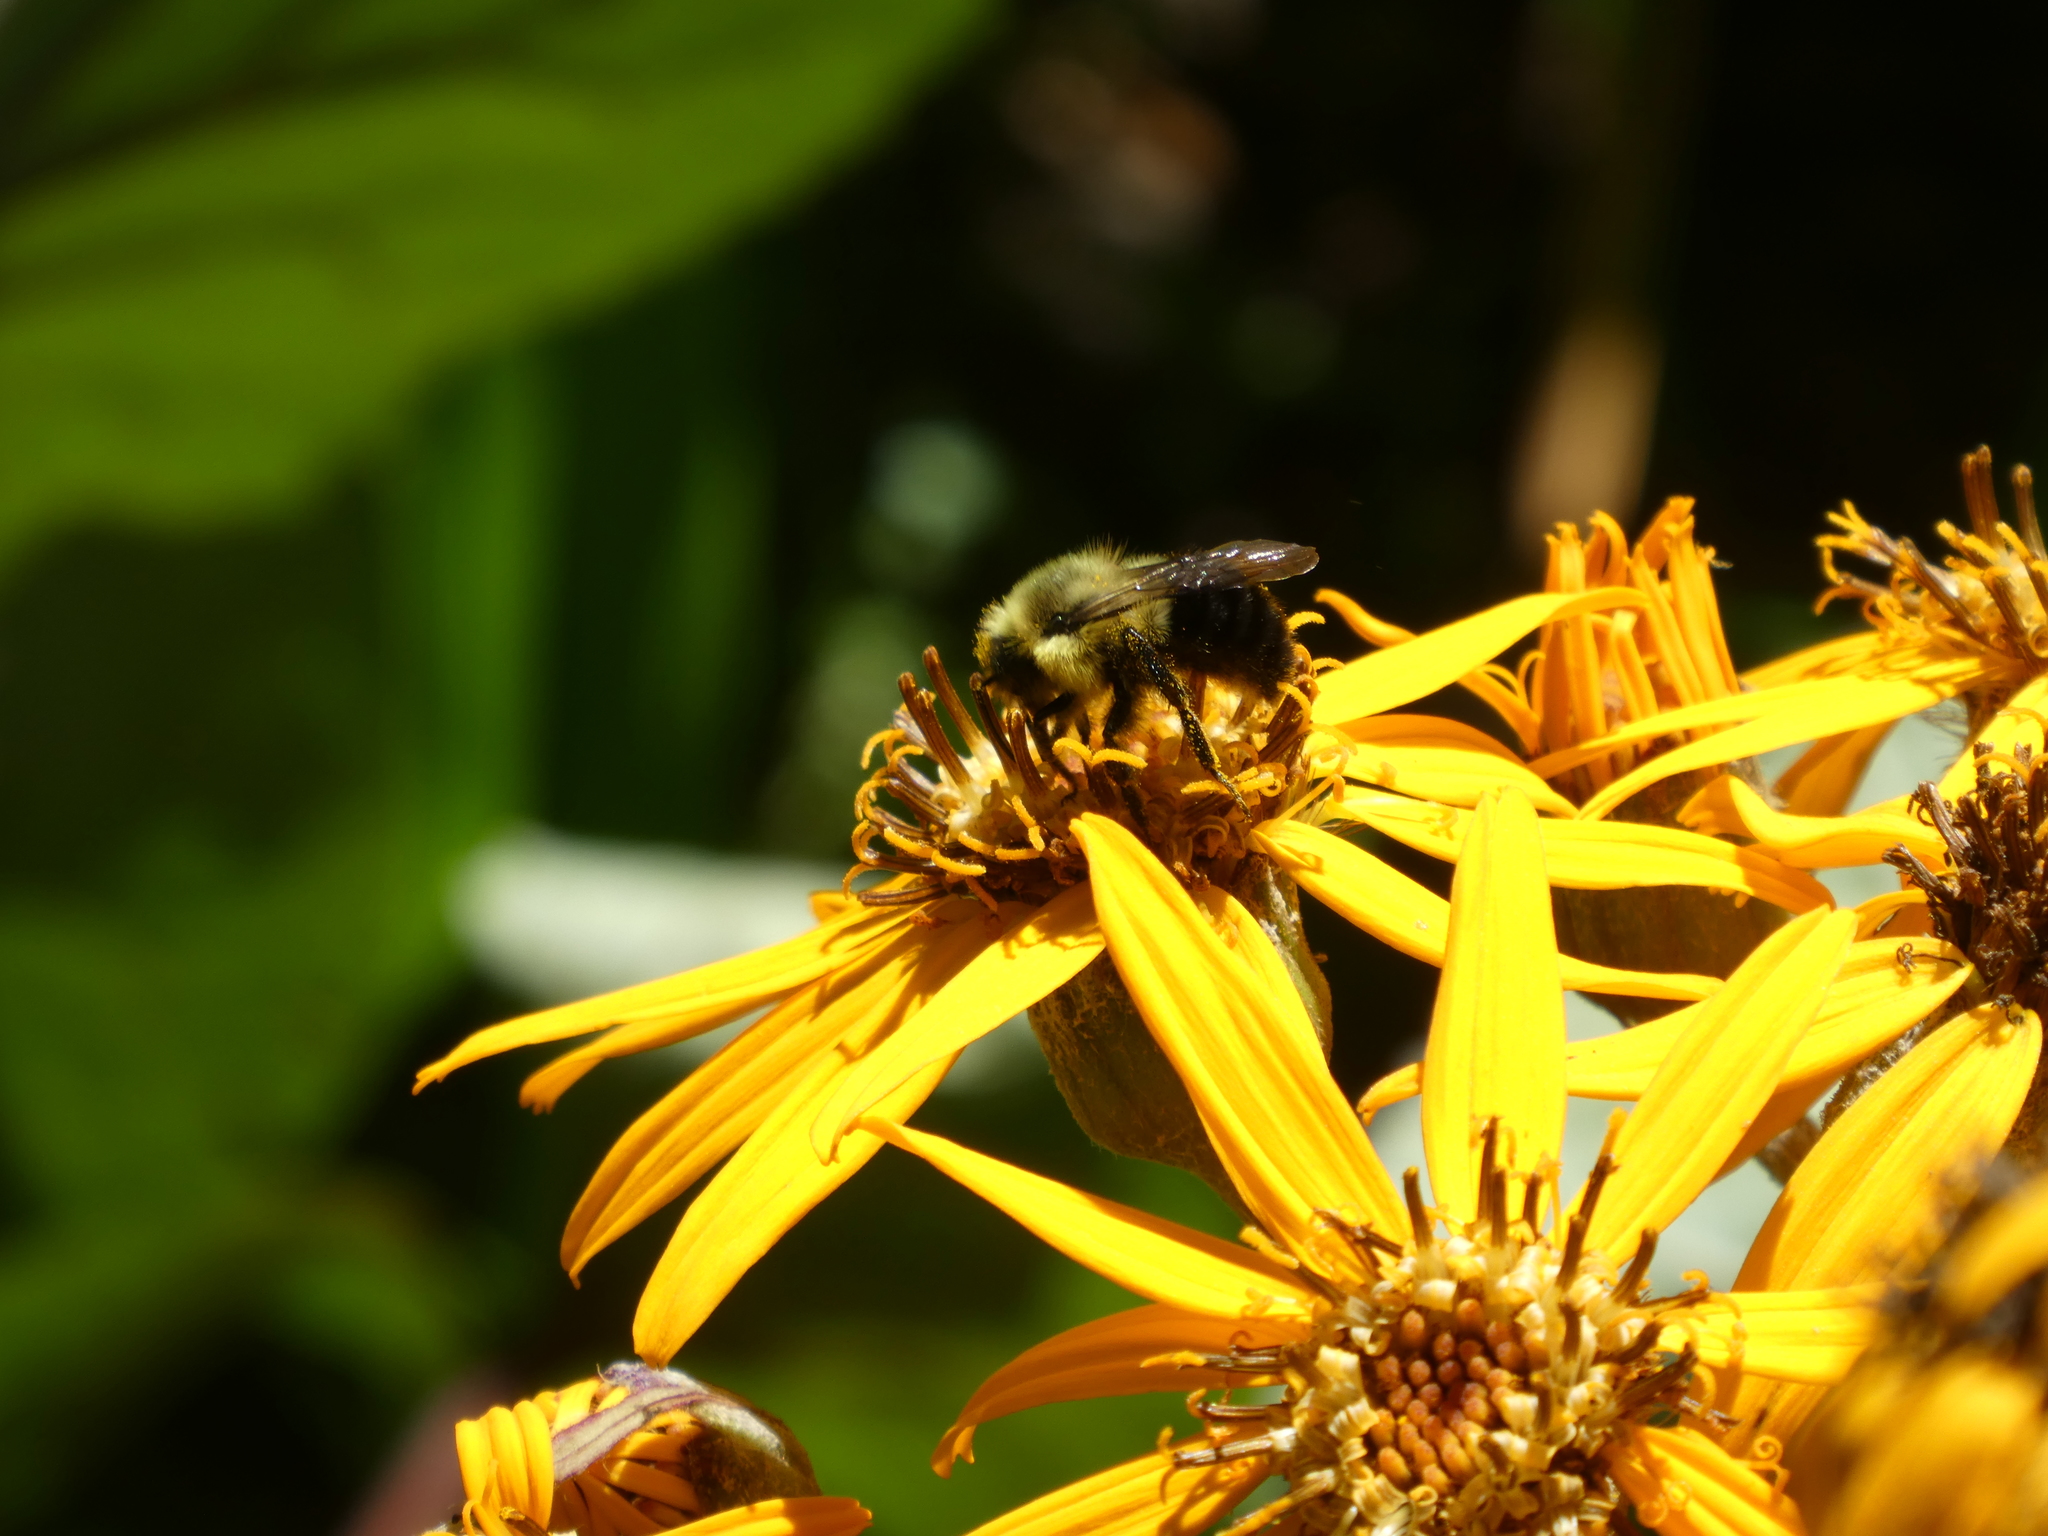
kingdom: Animalia
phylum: Arthropoda
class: Insecta
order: Hymenoptera
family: Apidae
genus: Bombus
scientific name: Bombus impatiens
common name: Common eastern bumble bee
